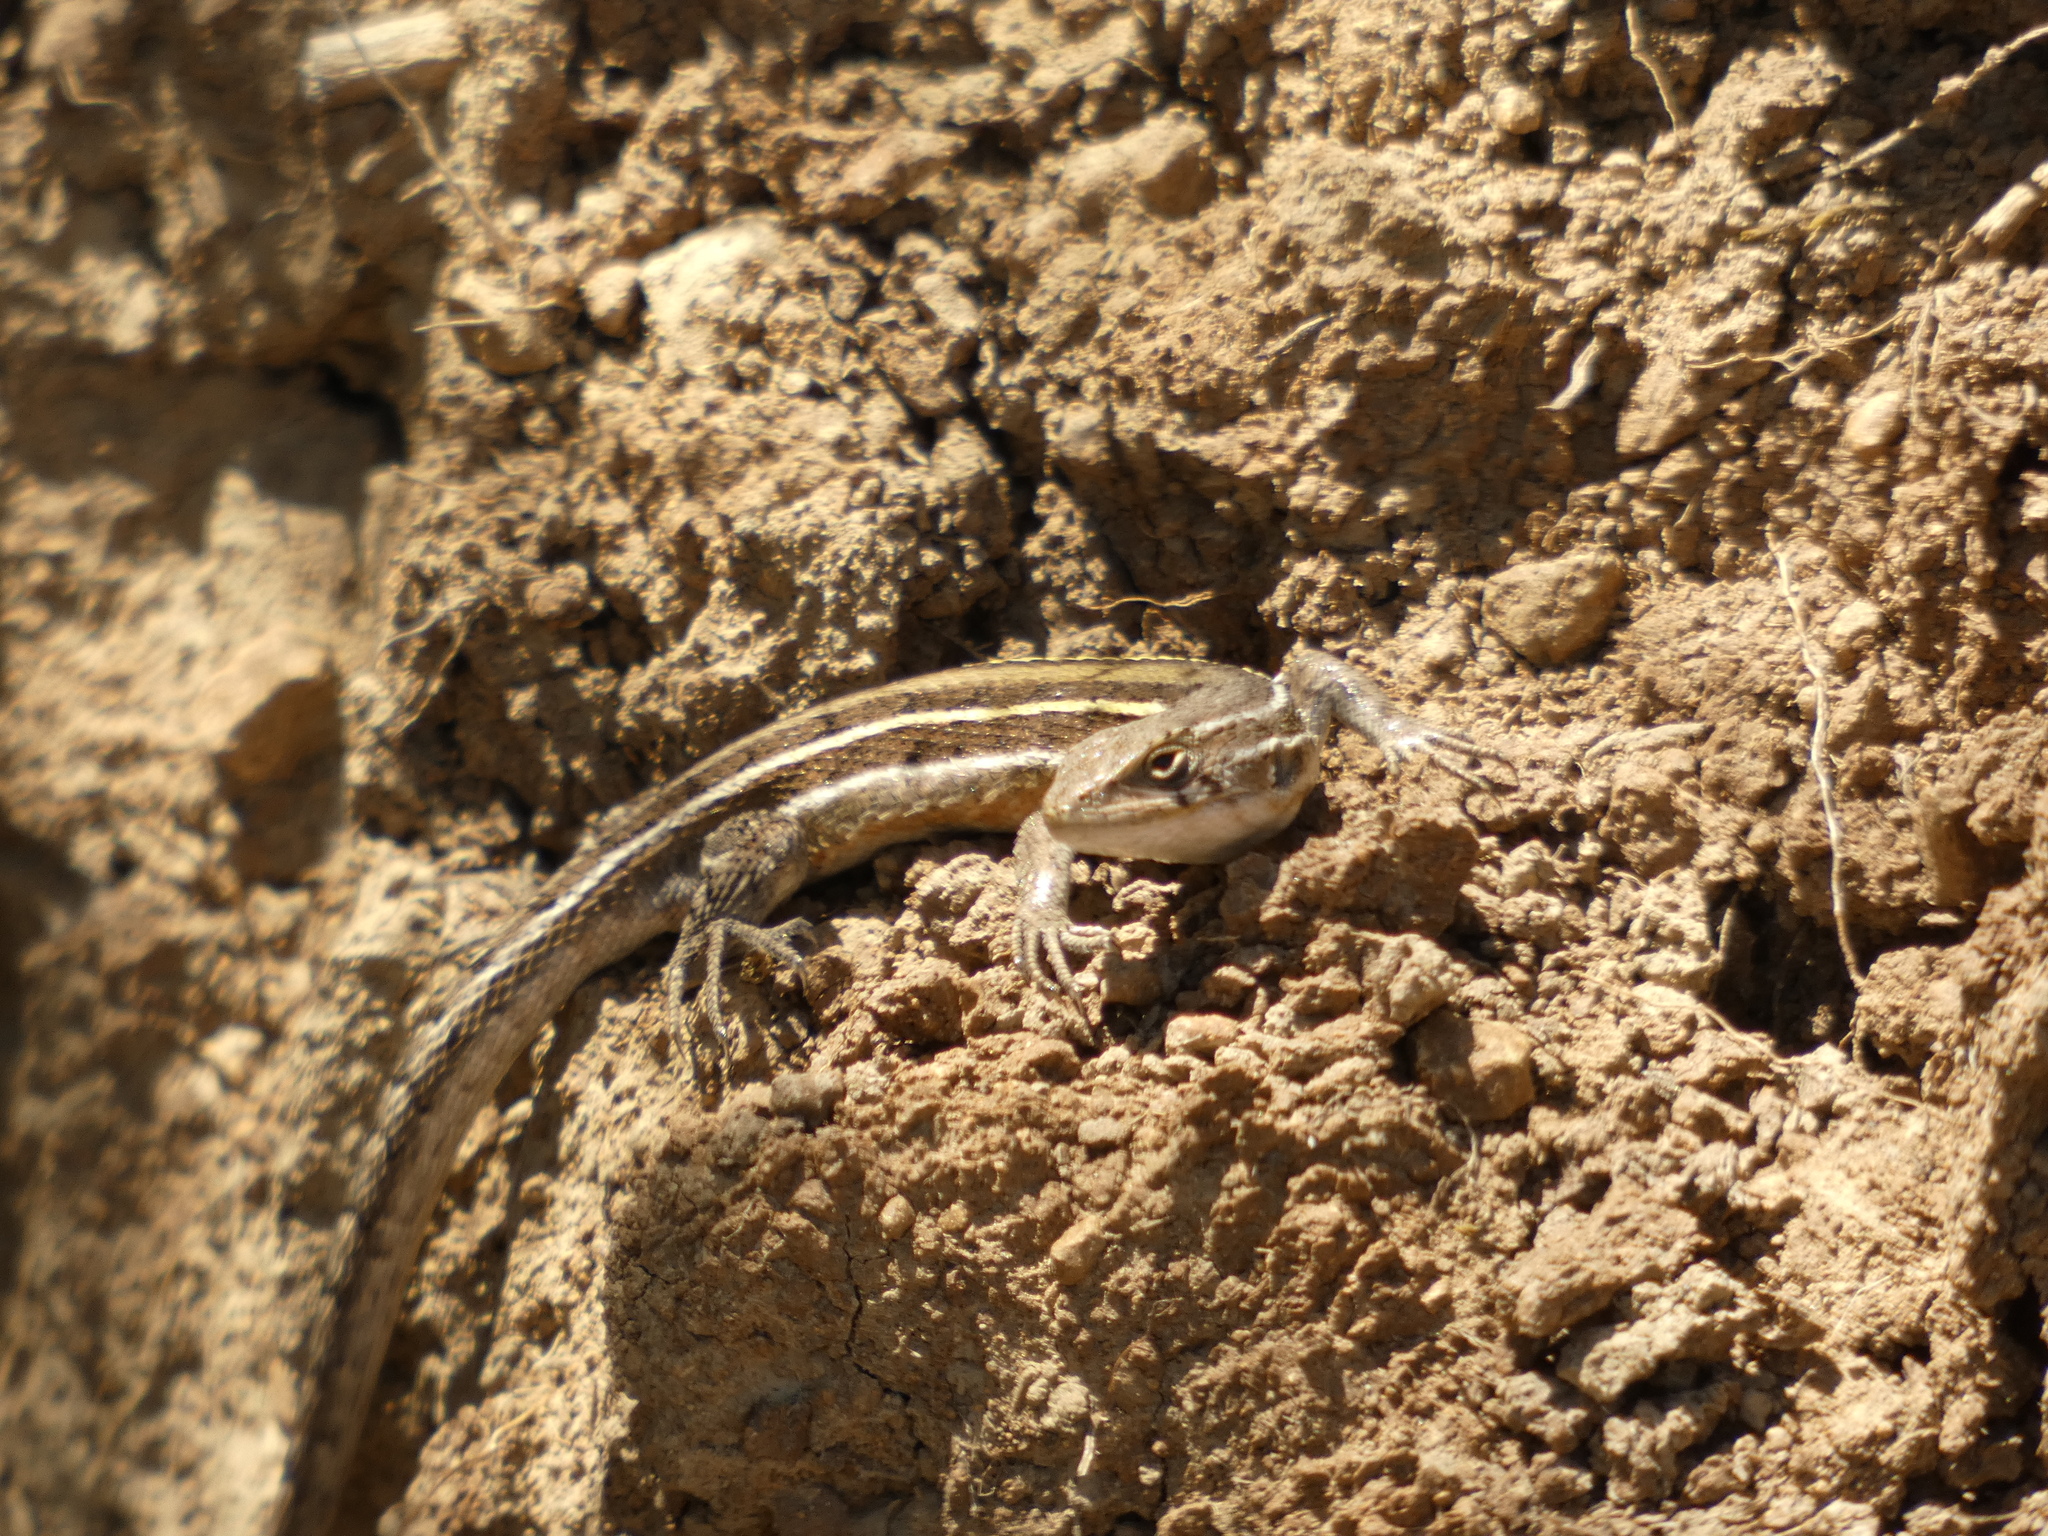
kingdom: Animalia
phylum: Chordata
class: Squamata
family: Liolaemidae
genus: Liolaemus
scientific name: Liolaemus lemniscatus
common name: Wreath tree iguana
